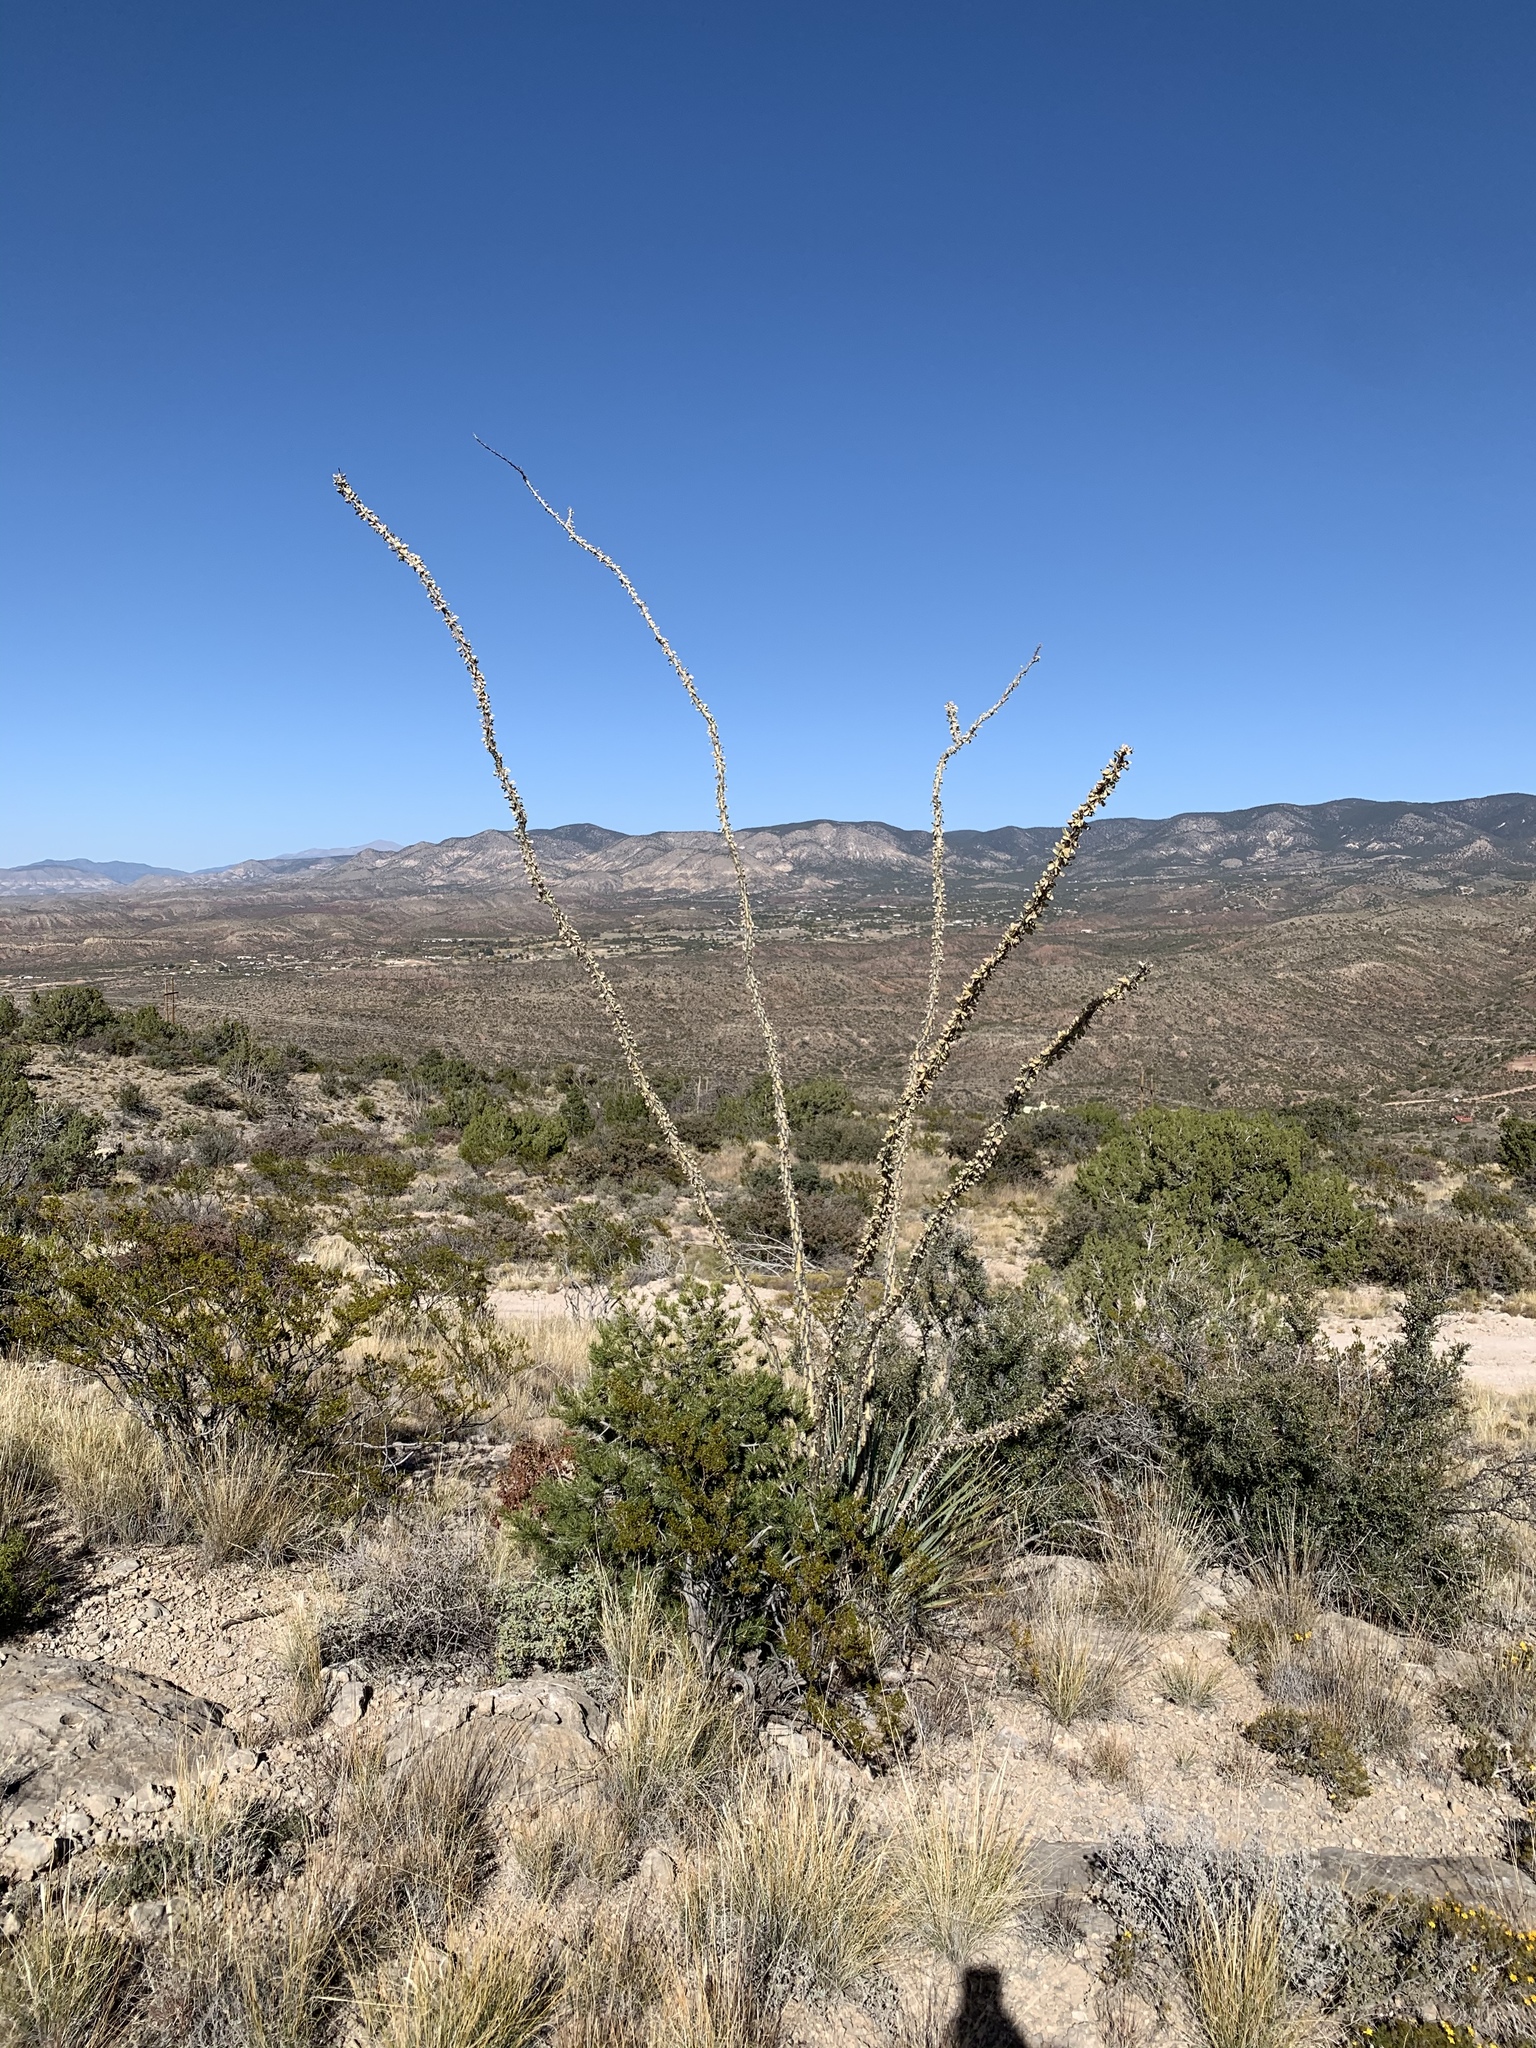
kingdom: Plantae
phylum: Tracheophyta
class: Magnoliopsida
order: Ericales
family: Fouquieriaceae
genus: Fouquieria
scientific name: Fouquieria splendens
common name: Vine-cactus
